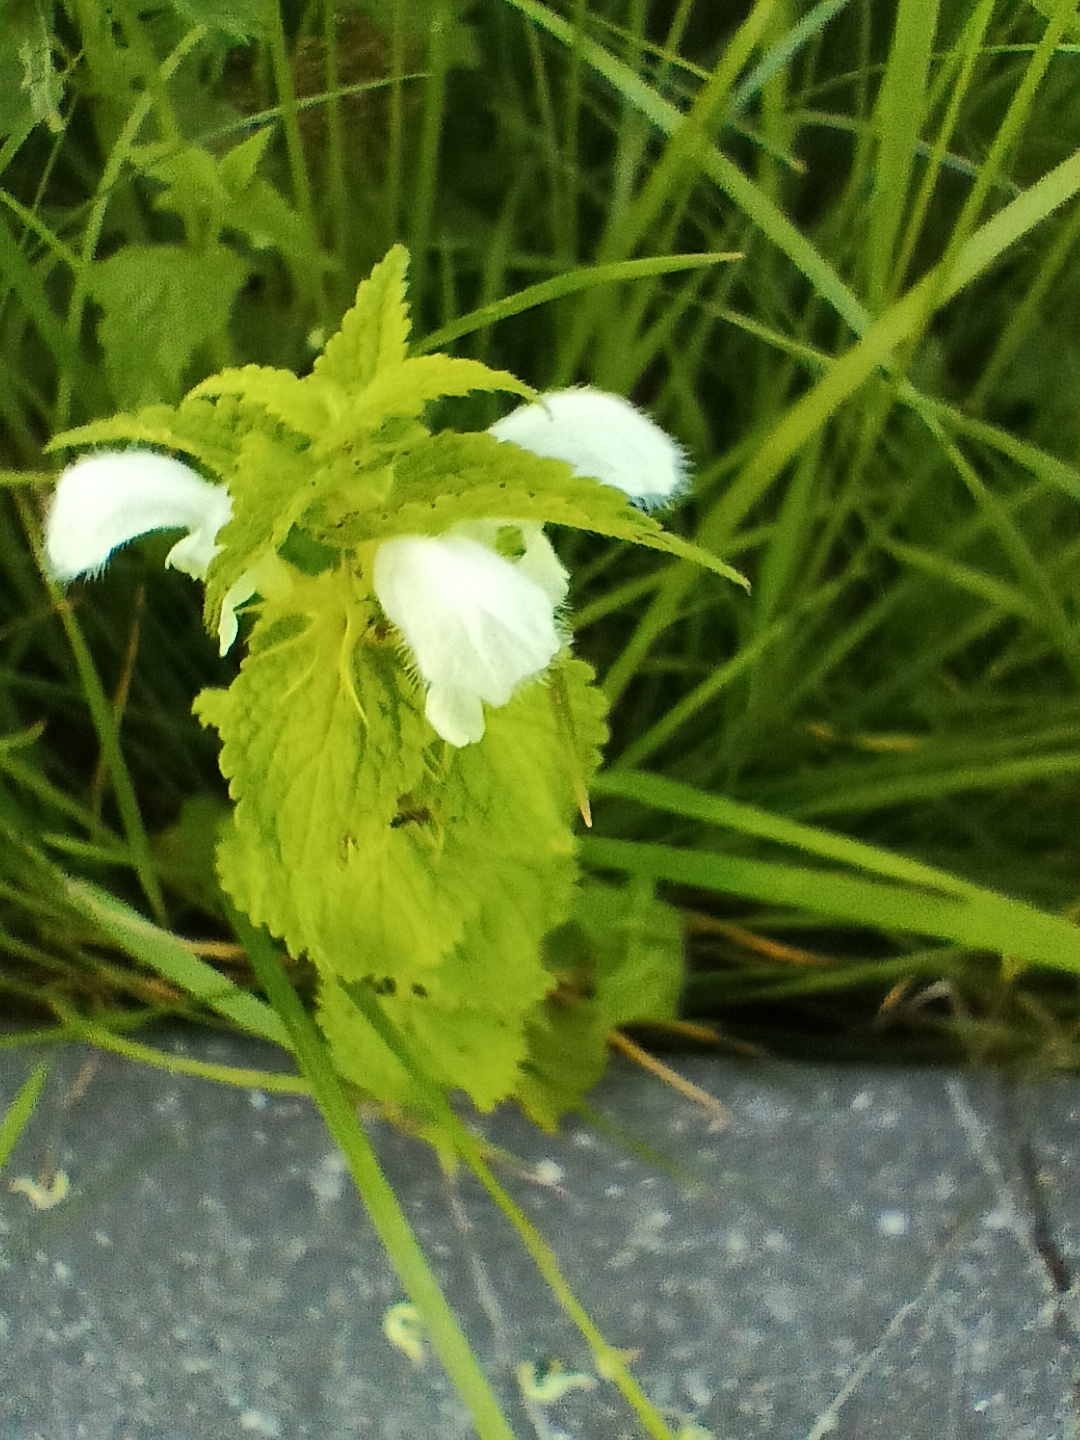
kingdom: Plantae
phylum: Tracheophyta
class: Magnoliopsida
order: Lamiales
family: Lamiaceae
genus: Lamium
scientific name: Lamium album
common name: White dead-nettle
